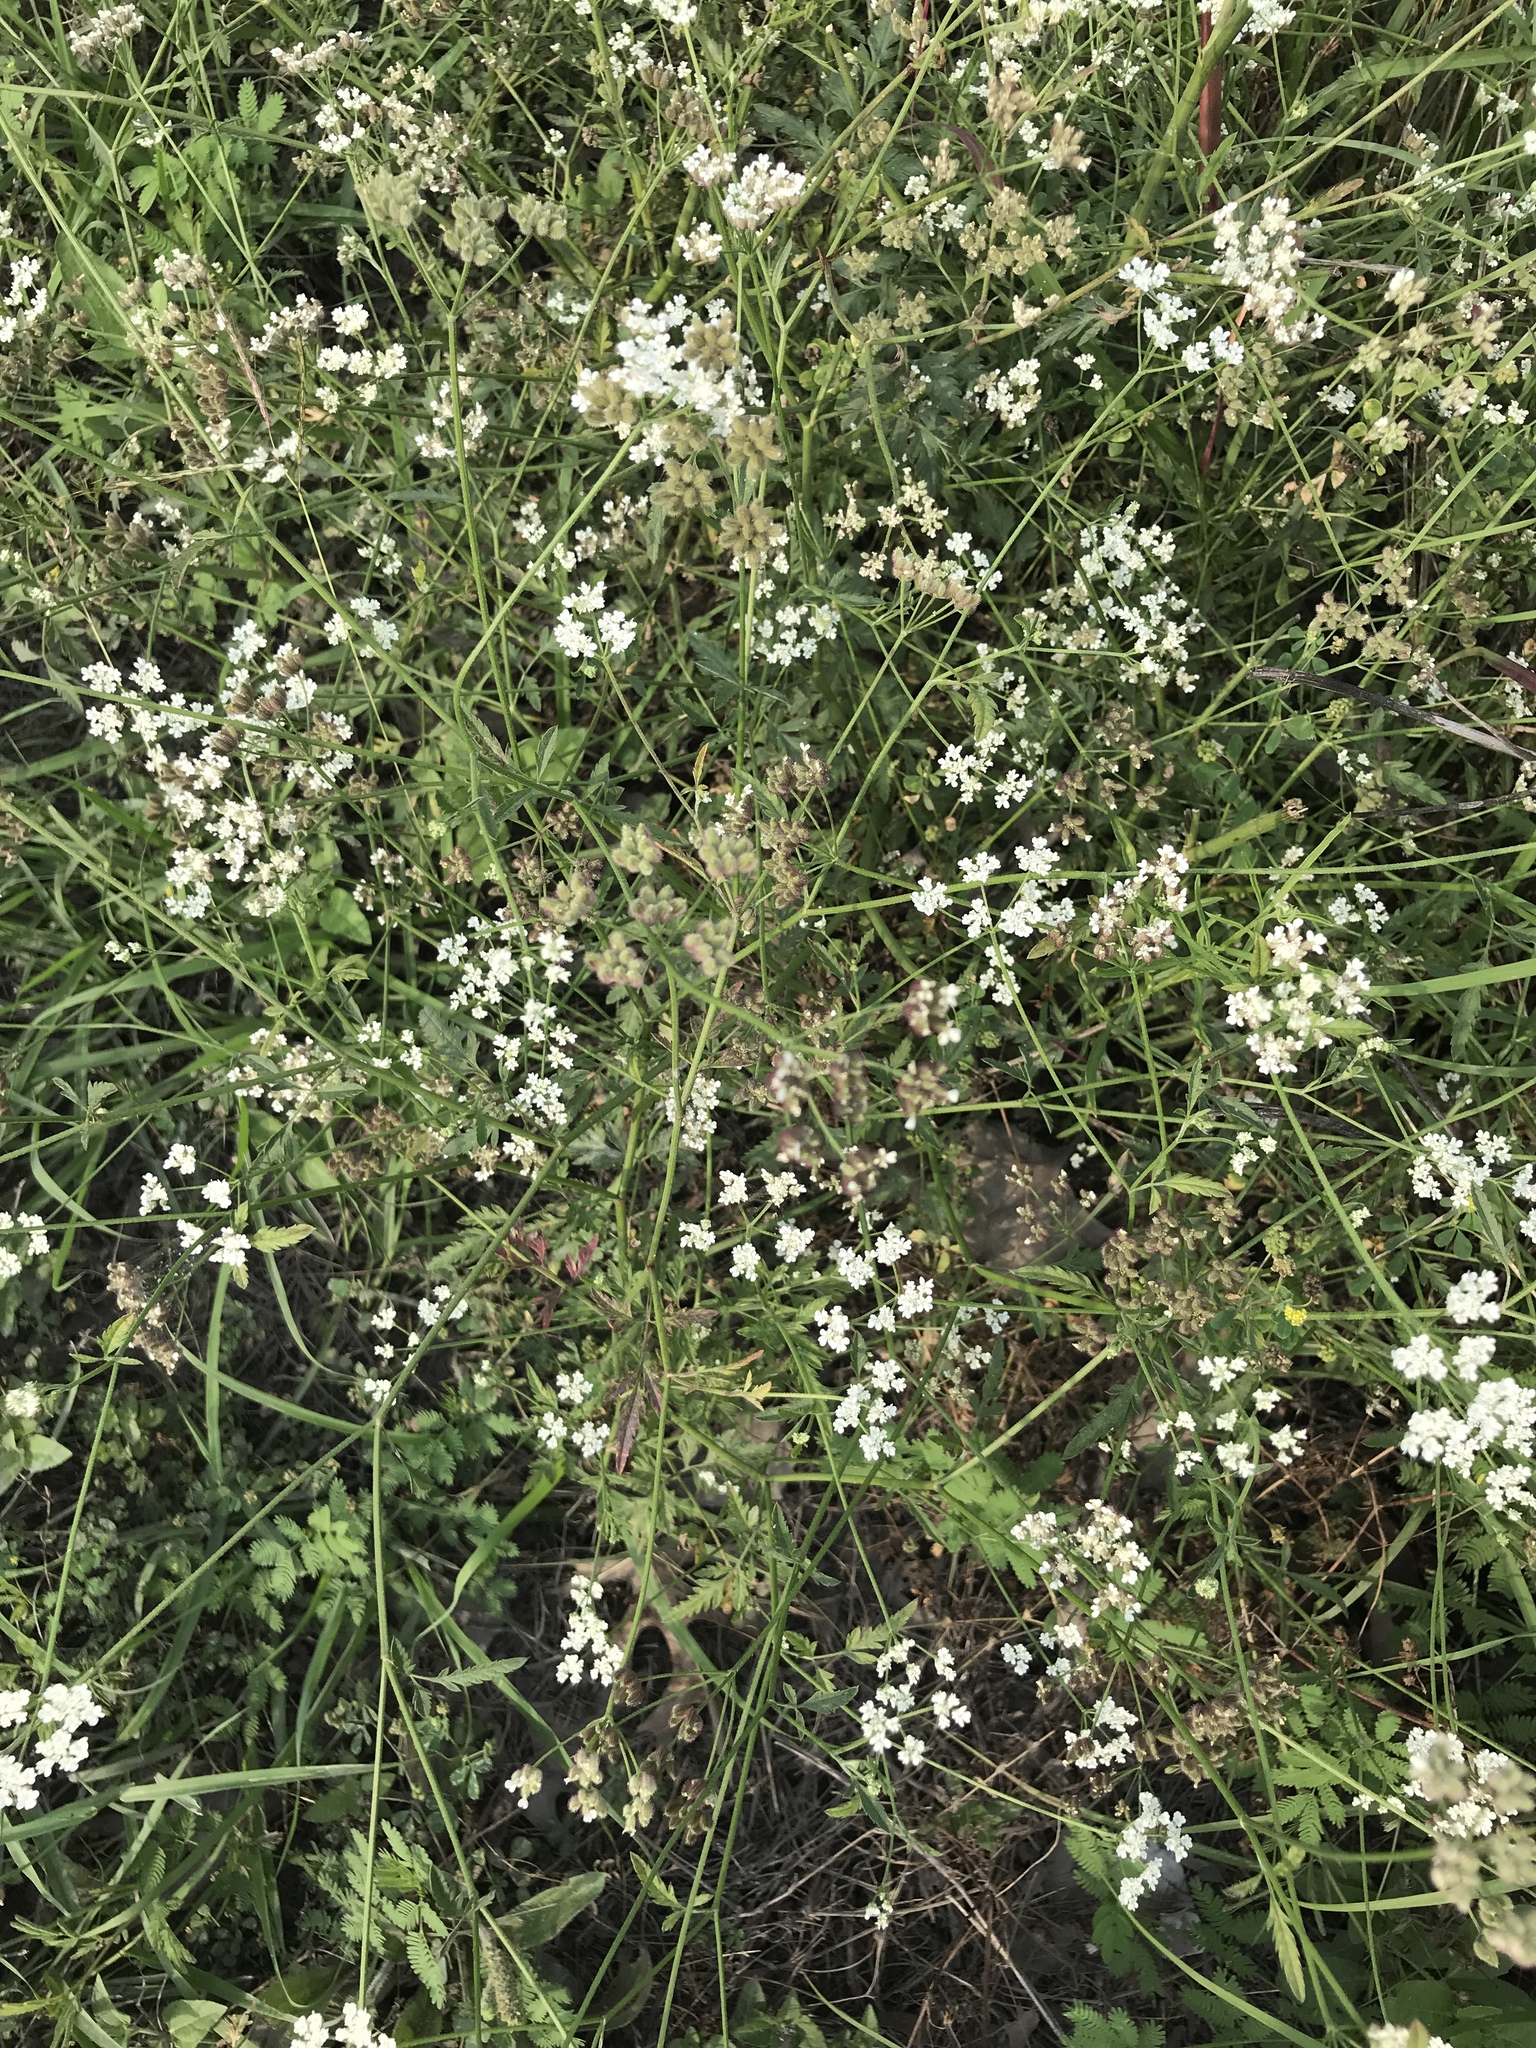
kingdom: Plantae
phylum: Tracheophyta
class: Magnoliopsida
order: Apiales
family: Apiaceae
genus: Torilis
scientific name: Torilis arvensis
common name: Spreading hedge-parsley
